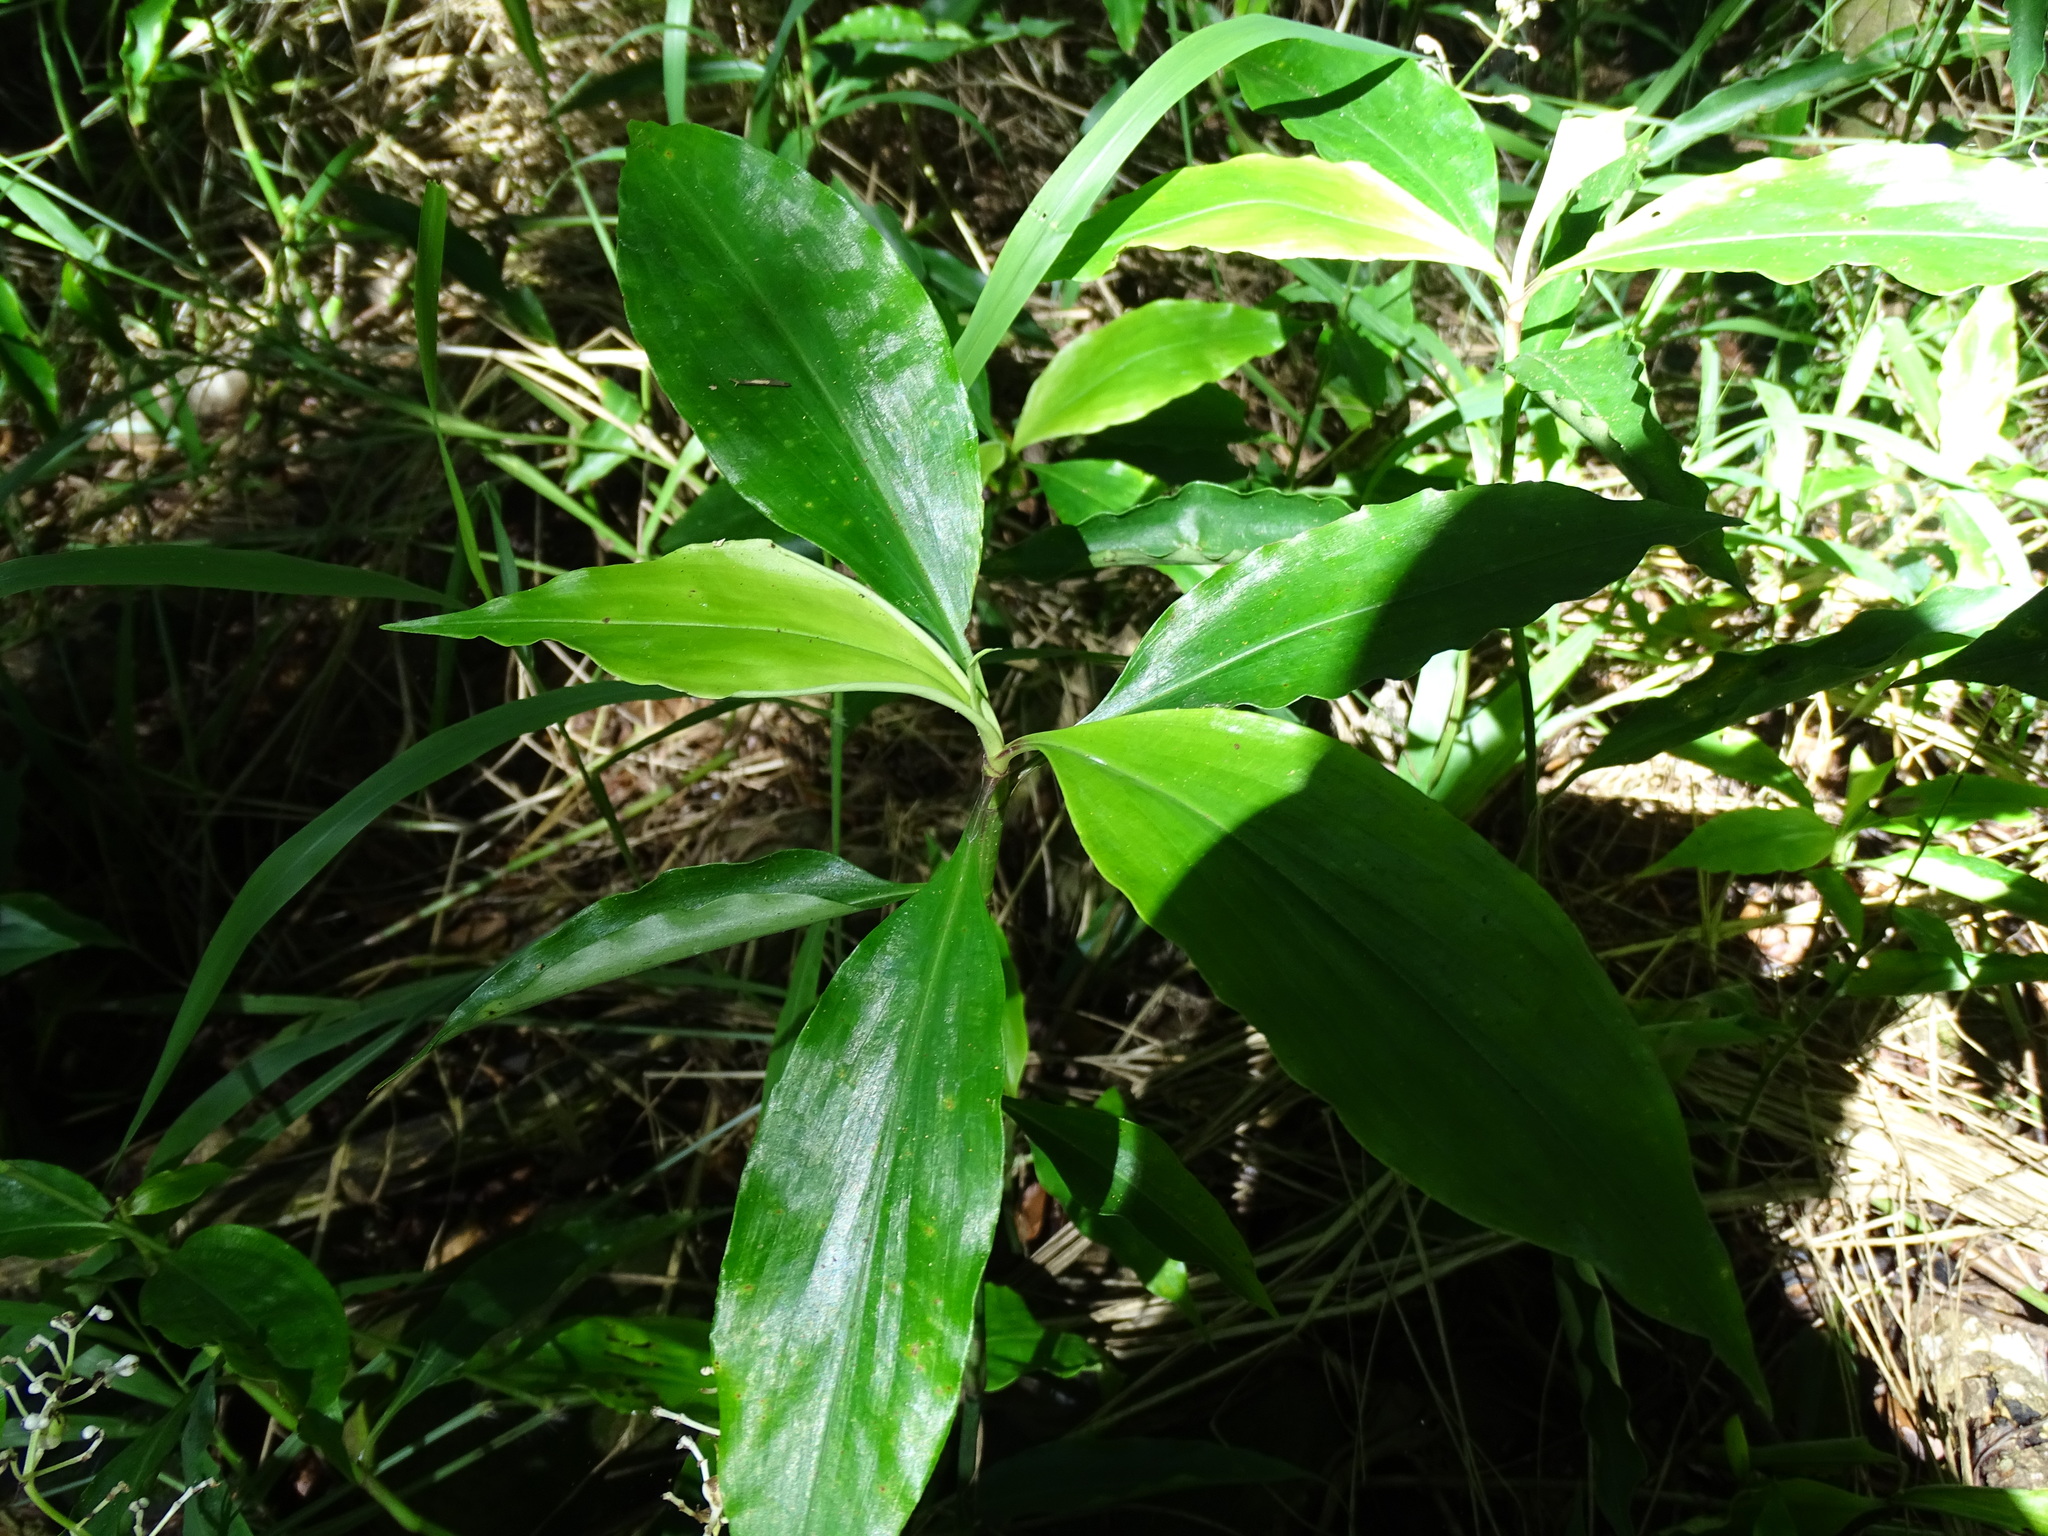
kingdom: Plantae
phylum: Tracheophyta
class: Liliopsida
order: Commelinales
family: Commelinaceae
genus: Pollia
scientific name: Pollia japonica
